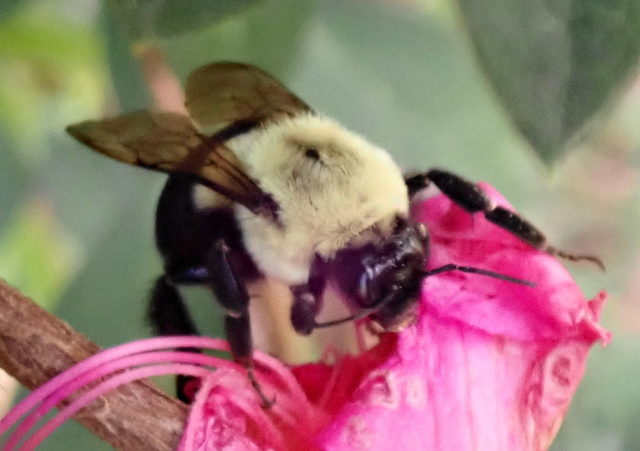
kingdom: Animalia
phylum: Arthropoda
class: Insecta
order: Hymenoptera
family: Apidae
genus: Bombus
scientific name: Bombus impatiens
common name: Common eastern bumble bee
